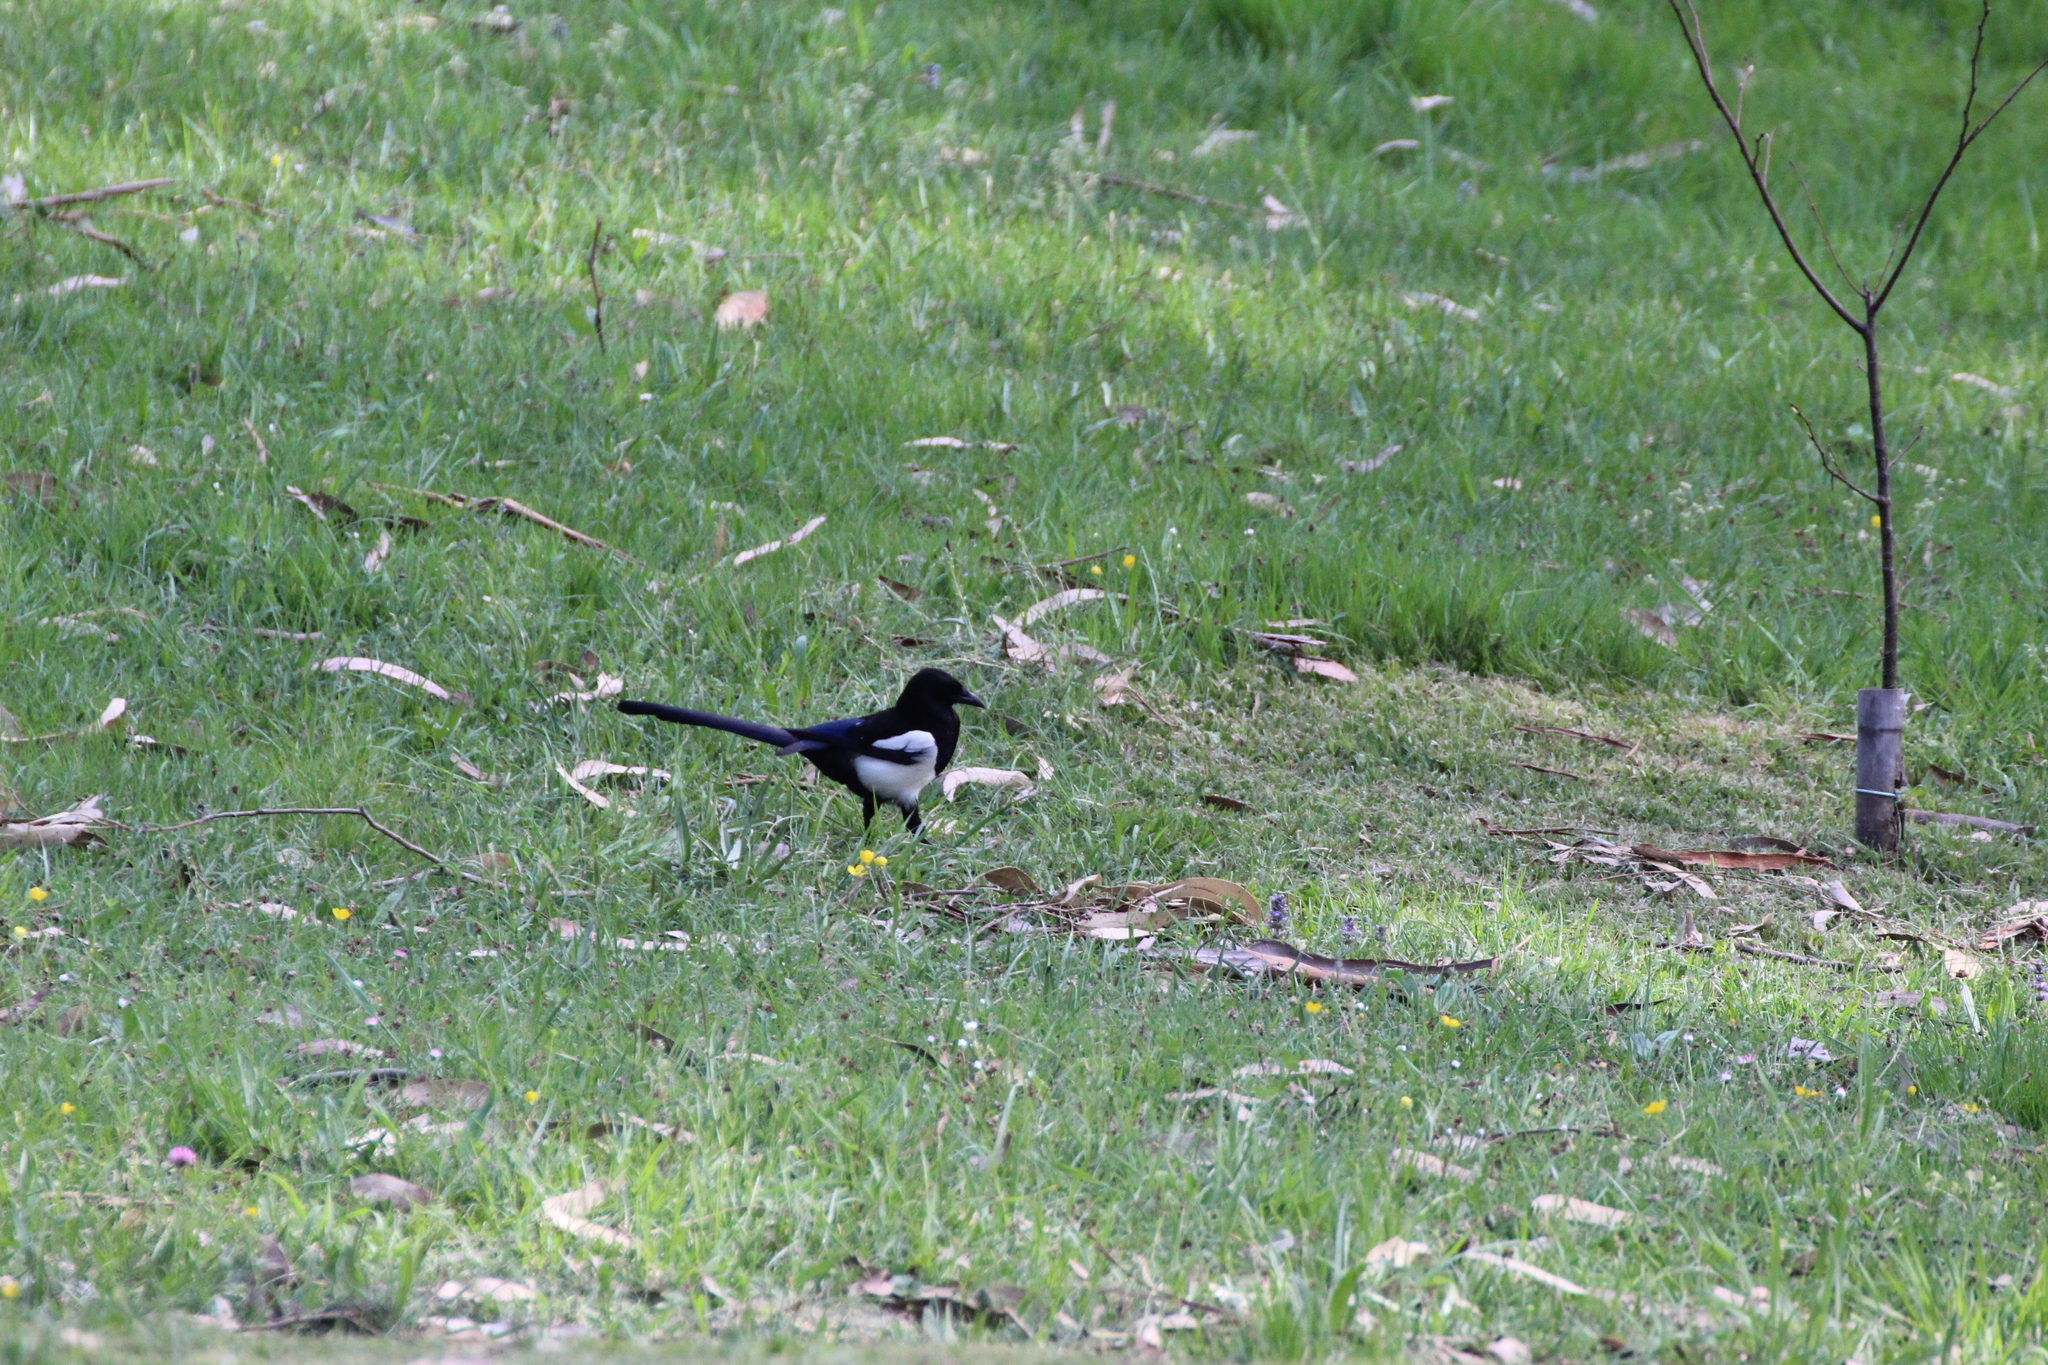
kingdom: Animalia
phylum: Chordata
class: Aves
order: Passeriformes
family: Corvidae
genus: Pica
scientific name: Pica pica
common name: Eurasian magpie
